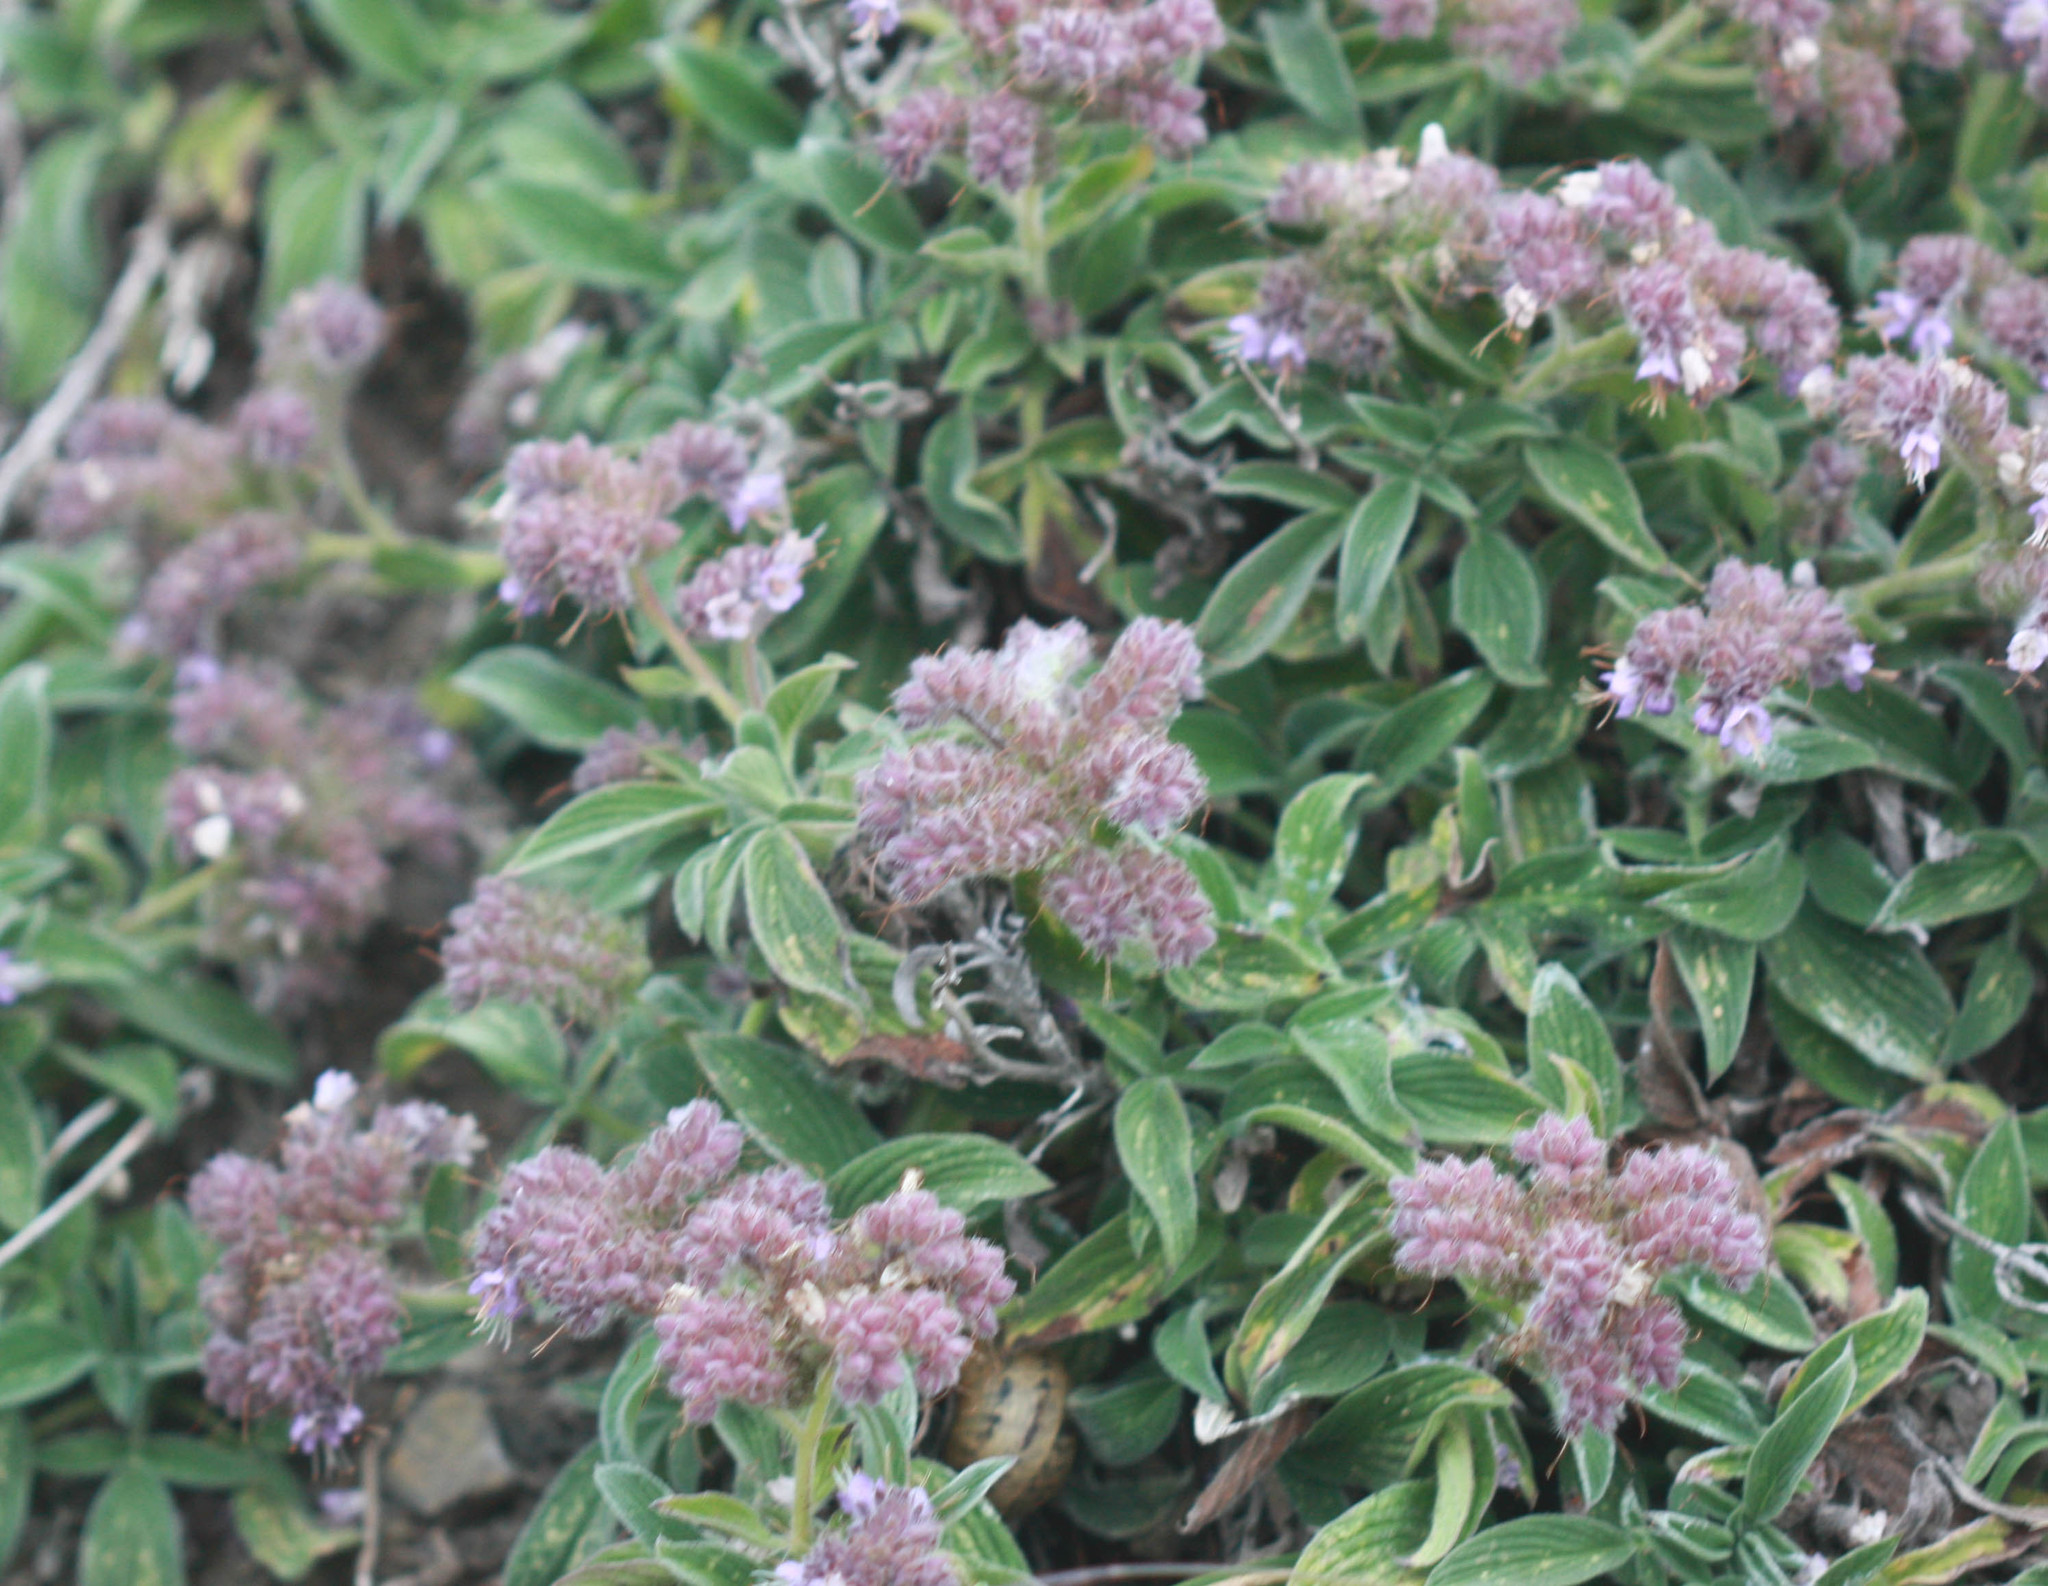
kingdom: Plantae
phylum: Tracheophyta
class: Magnoliopsida
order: Boraginales
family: Hydrophyllaceae
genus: Phacelia
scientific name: Phacelia californica
